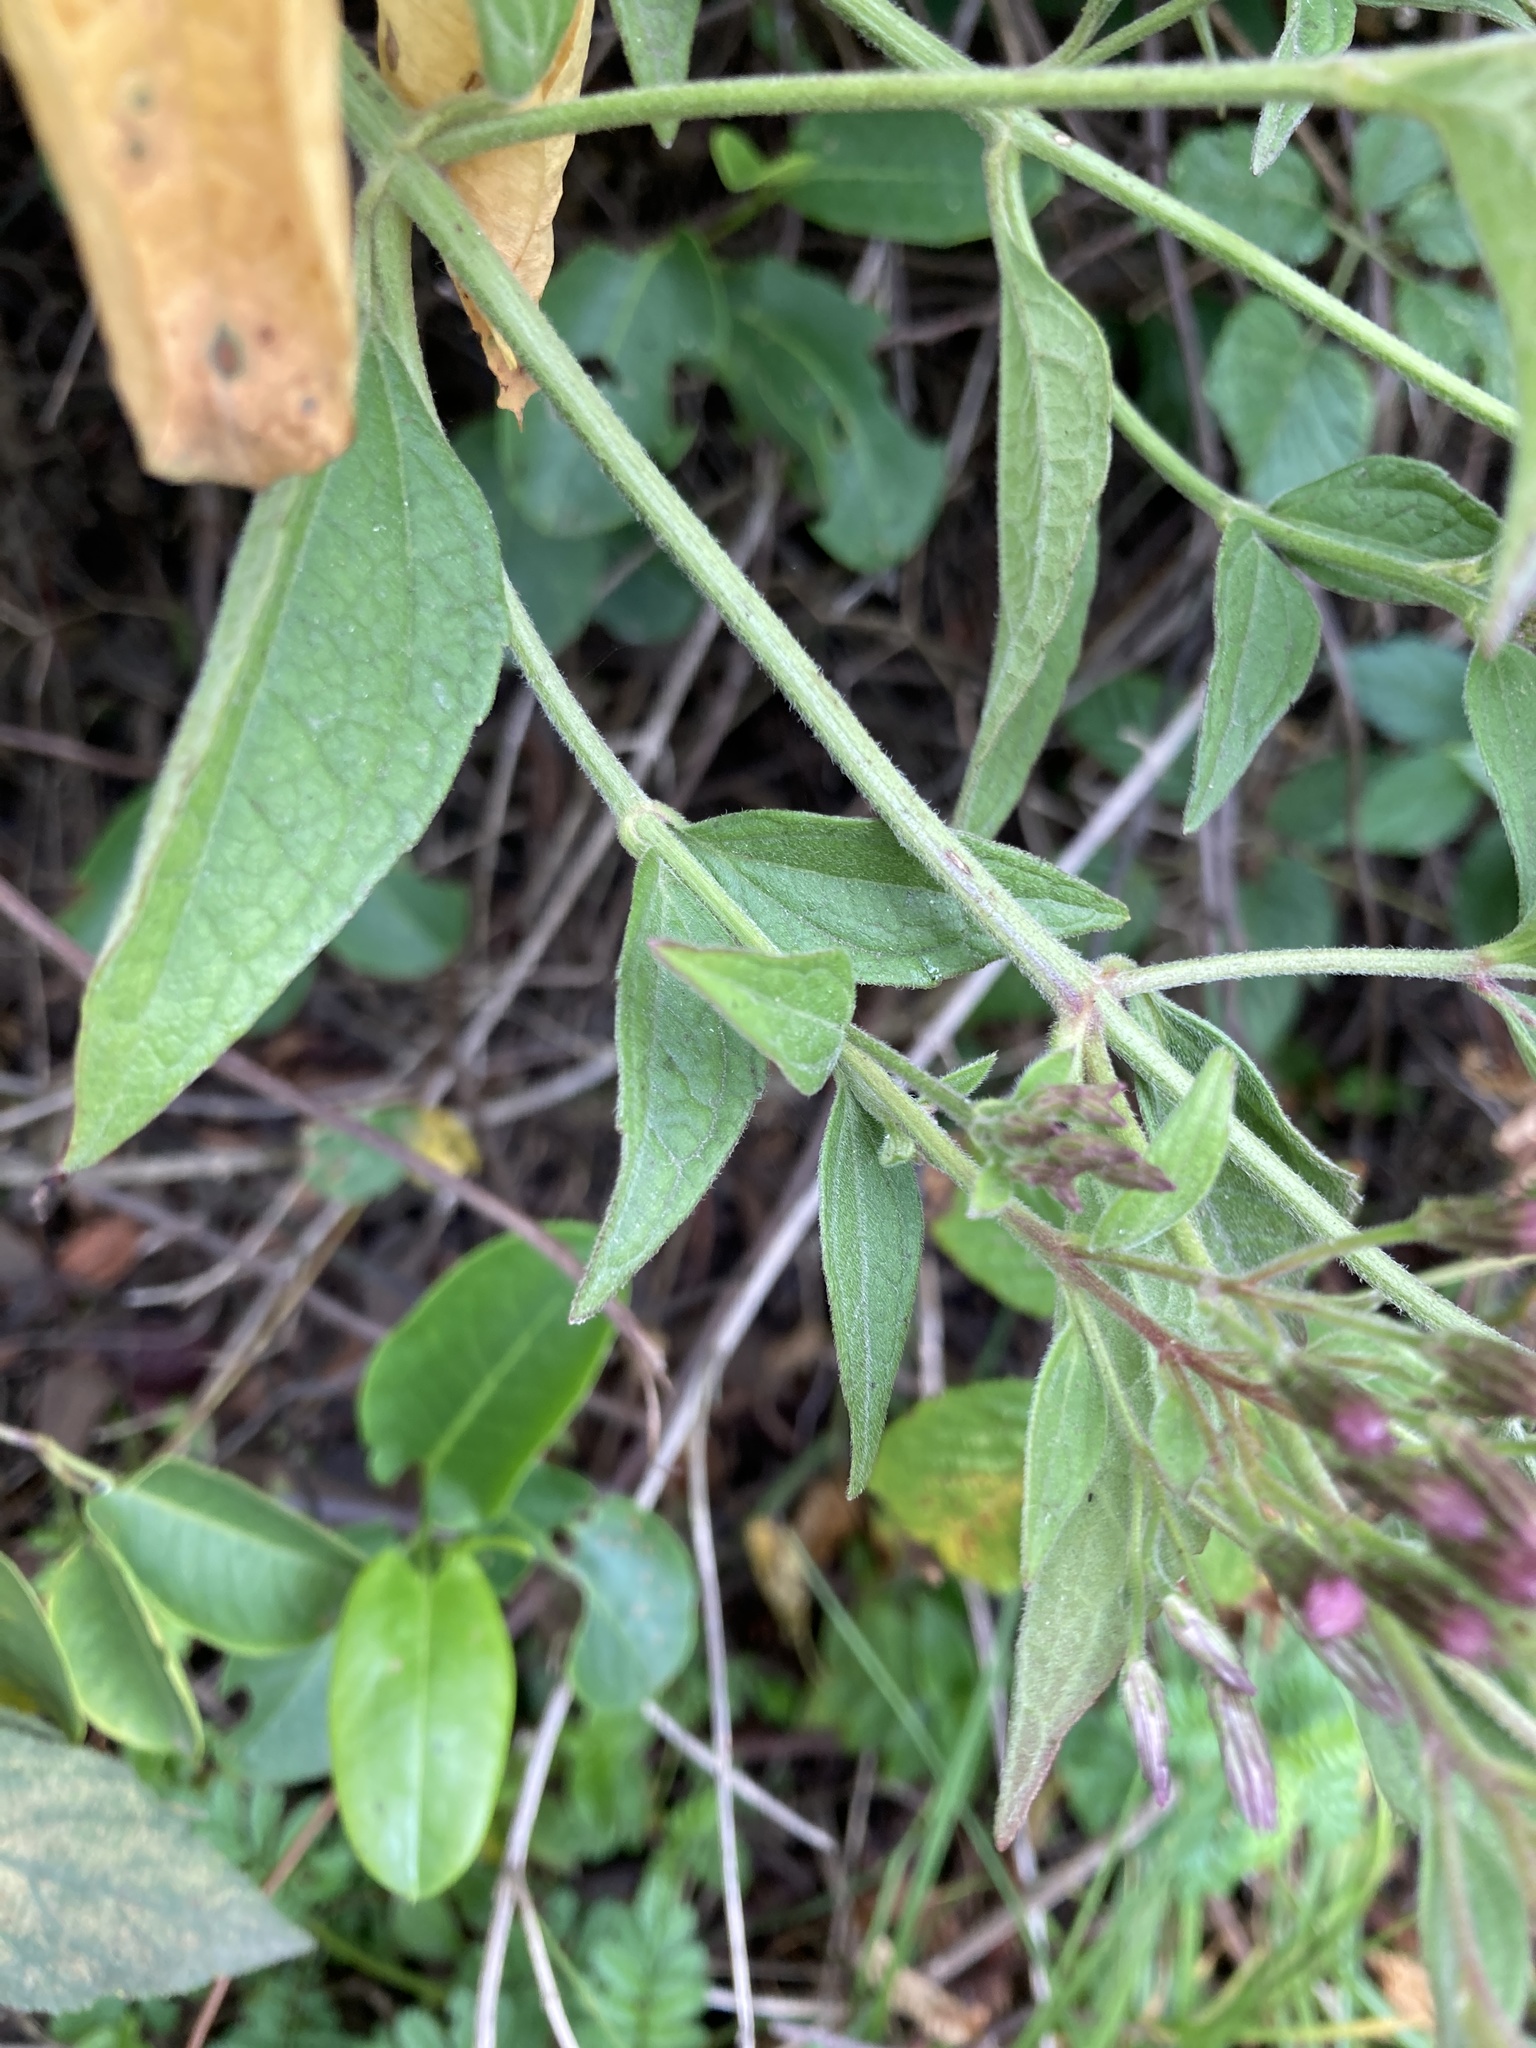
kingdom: Plantae
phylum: Tracheophyta
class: Magnoliopsida
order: Asterales
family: Asteraceae
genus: Chromolaena
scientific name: Chromolaena odorata
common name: Siamweed
